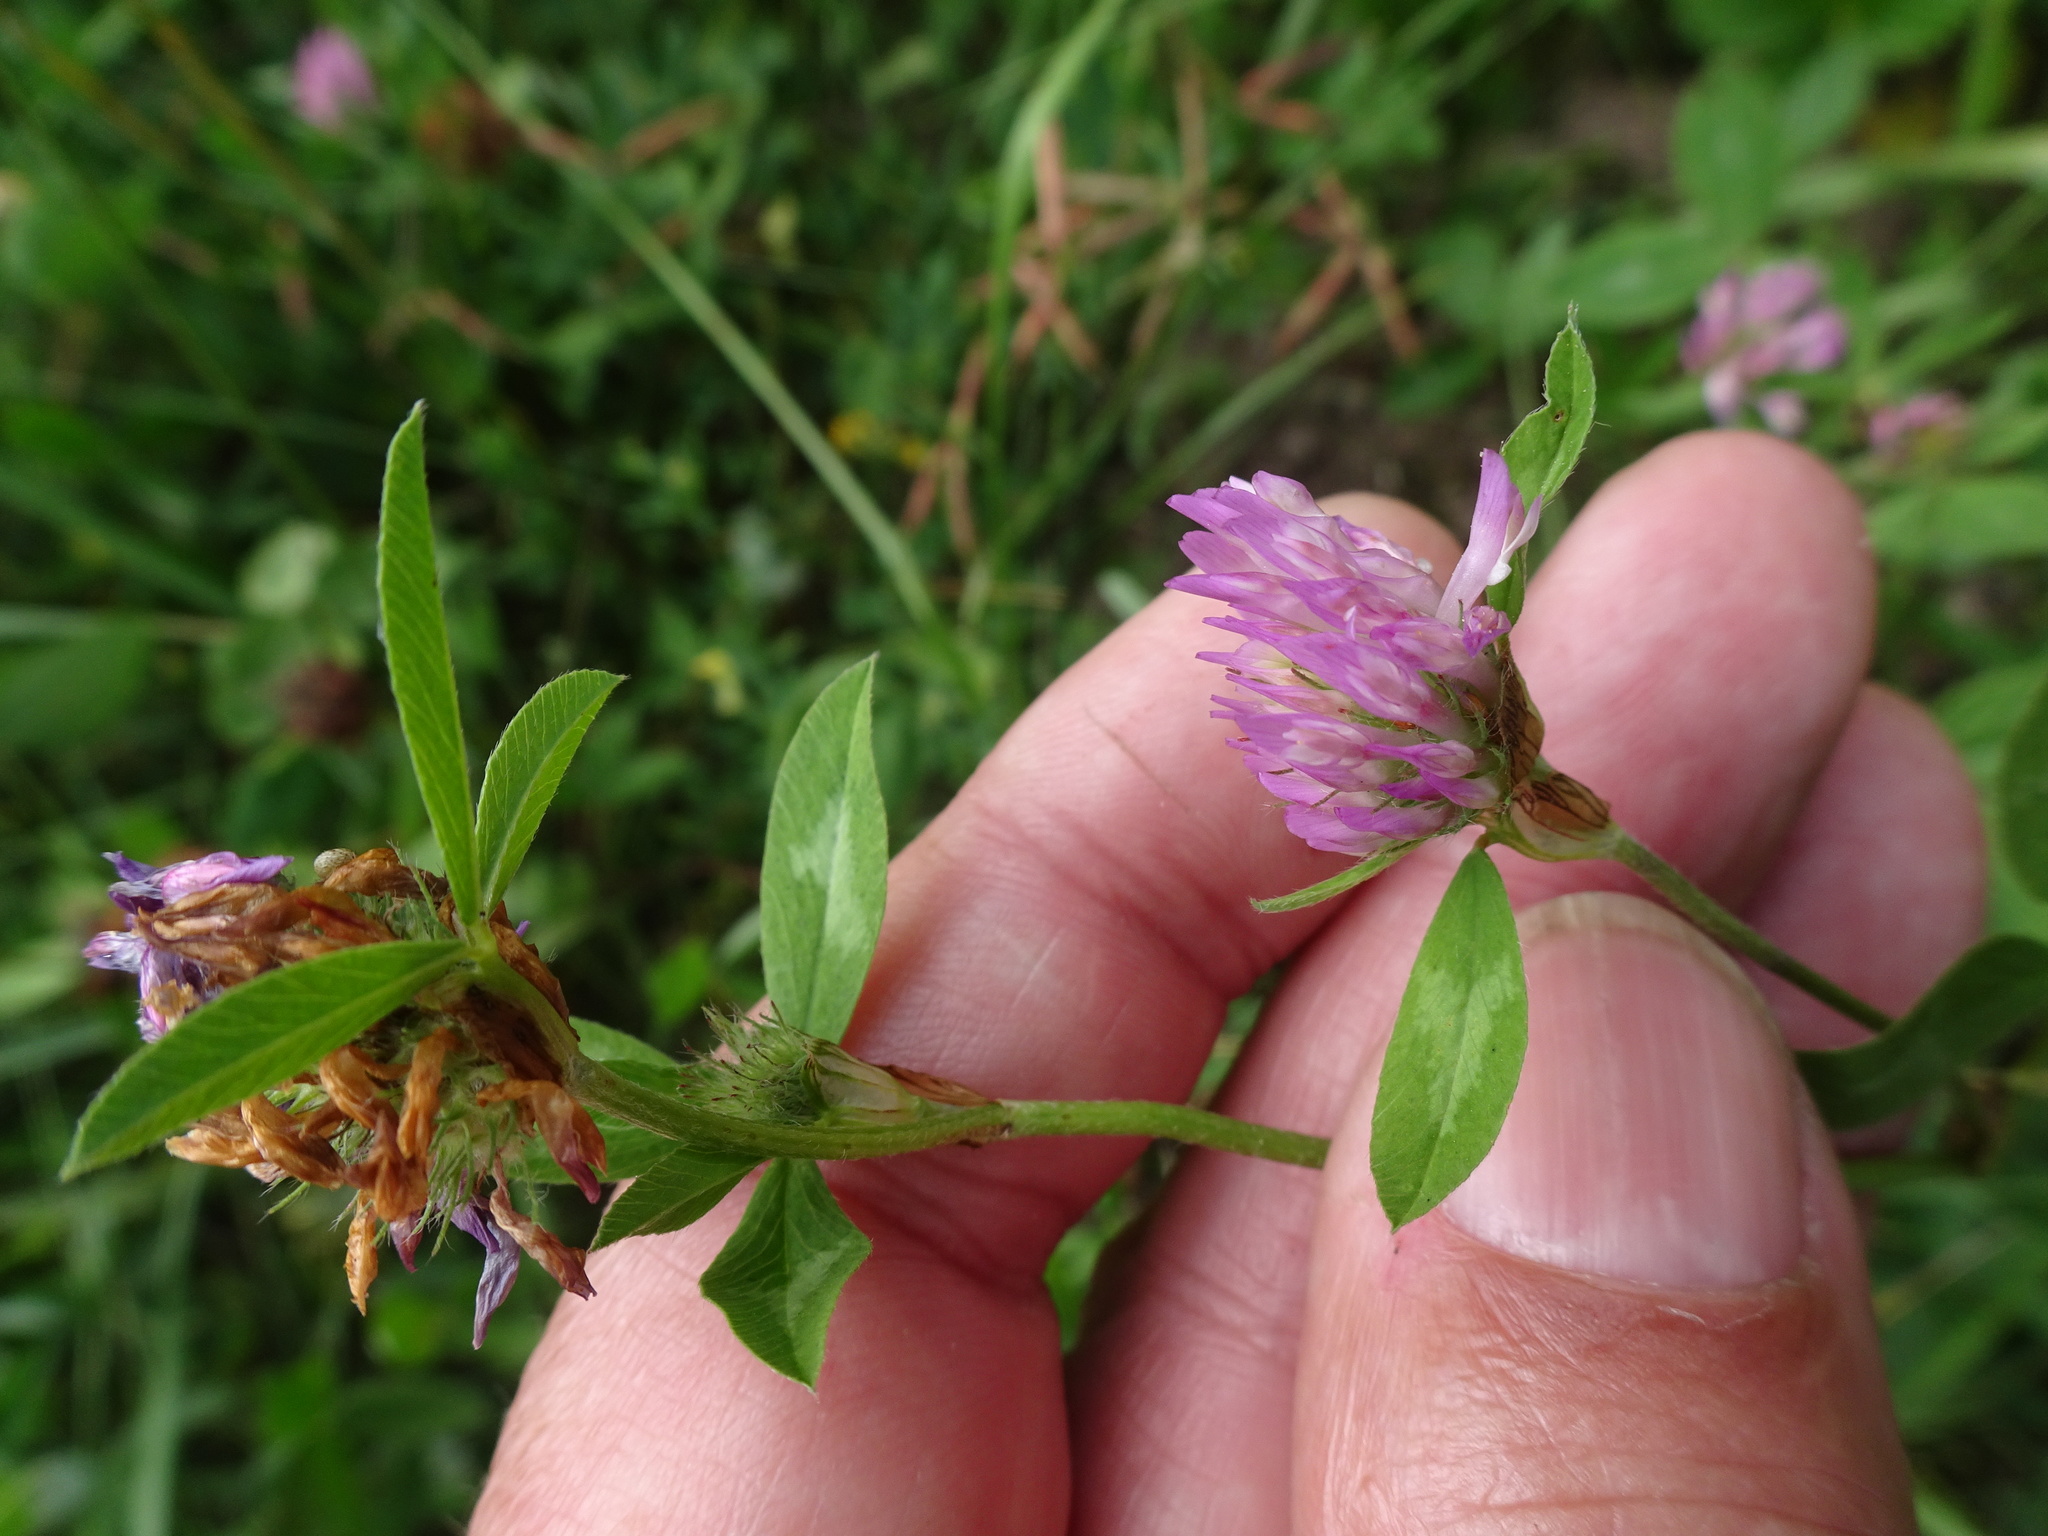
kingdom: Plantae
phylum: Tracheophyta
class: Magnoliopsida
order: Fabales
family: Fabaceae
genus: Trifolium
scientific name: Trifolium pratense
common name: Red clover
